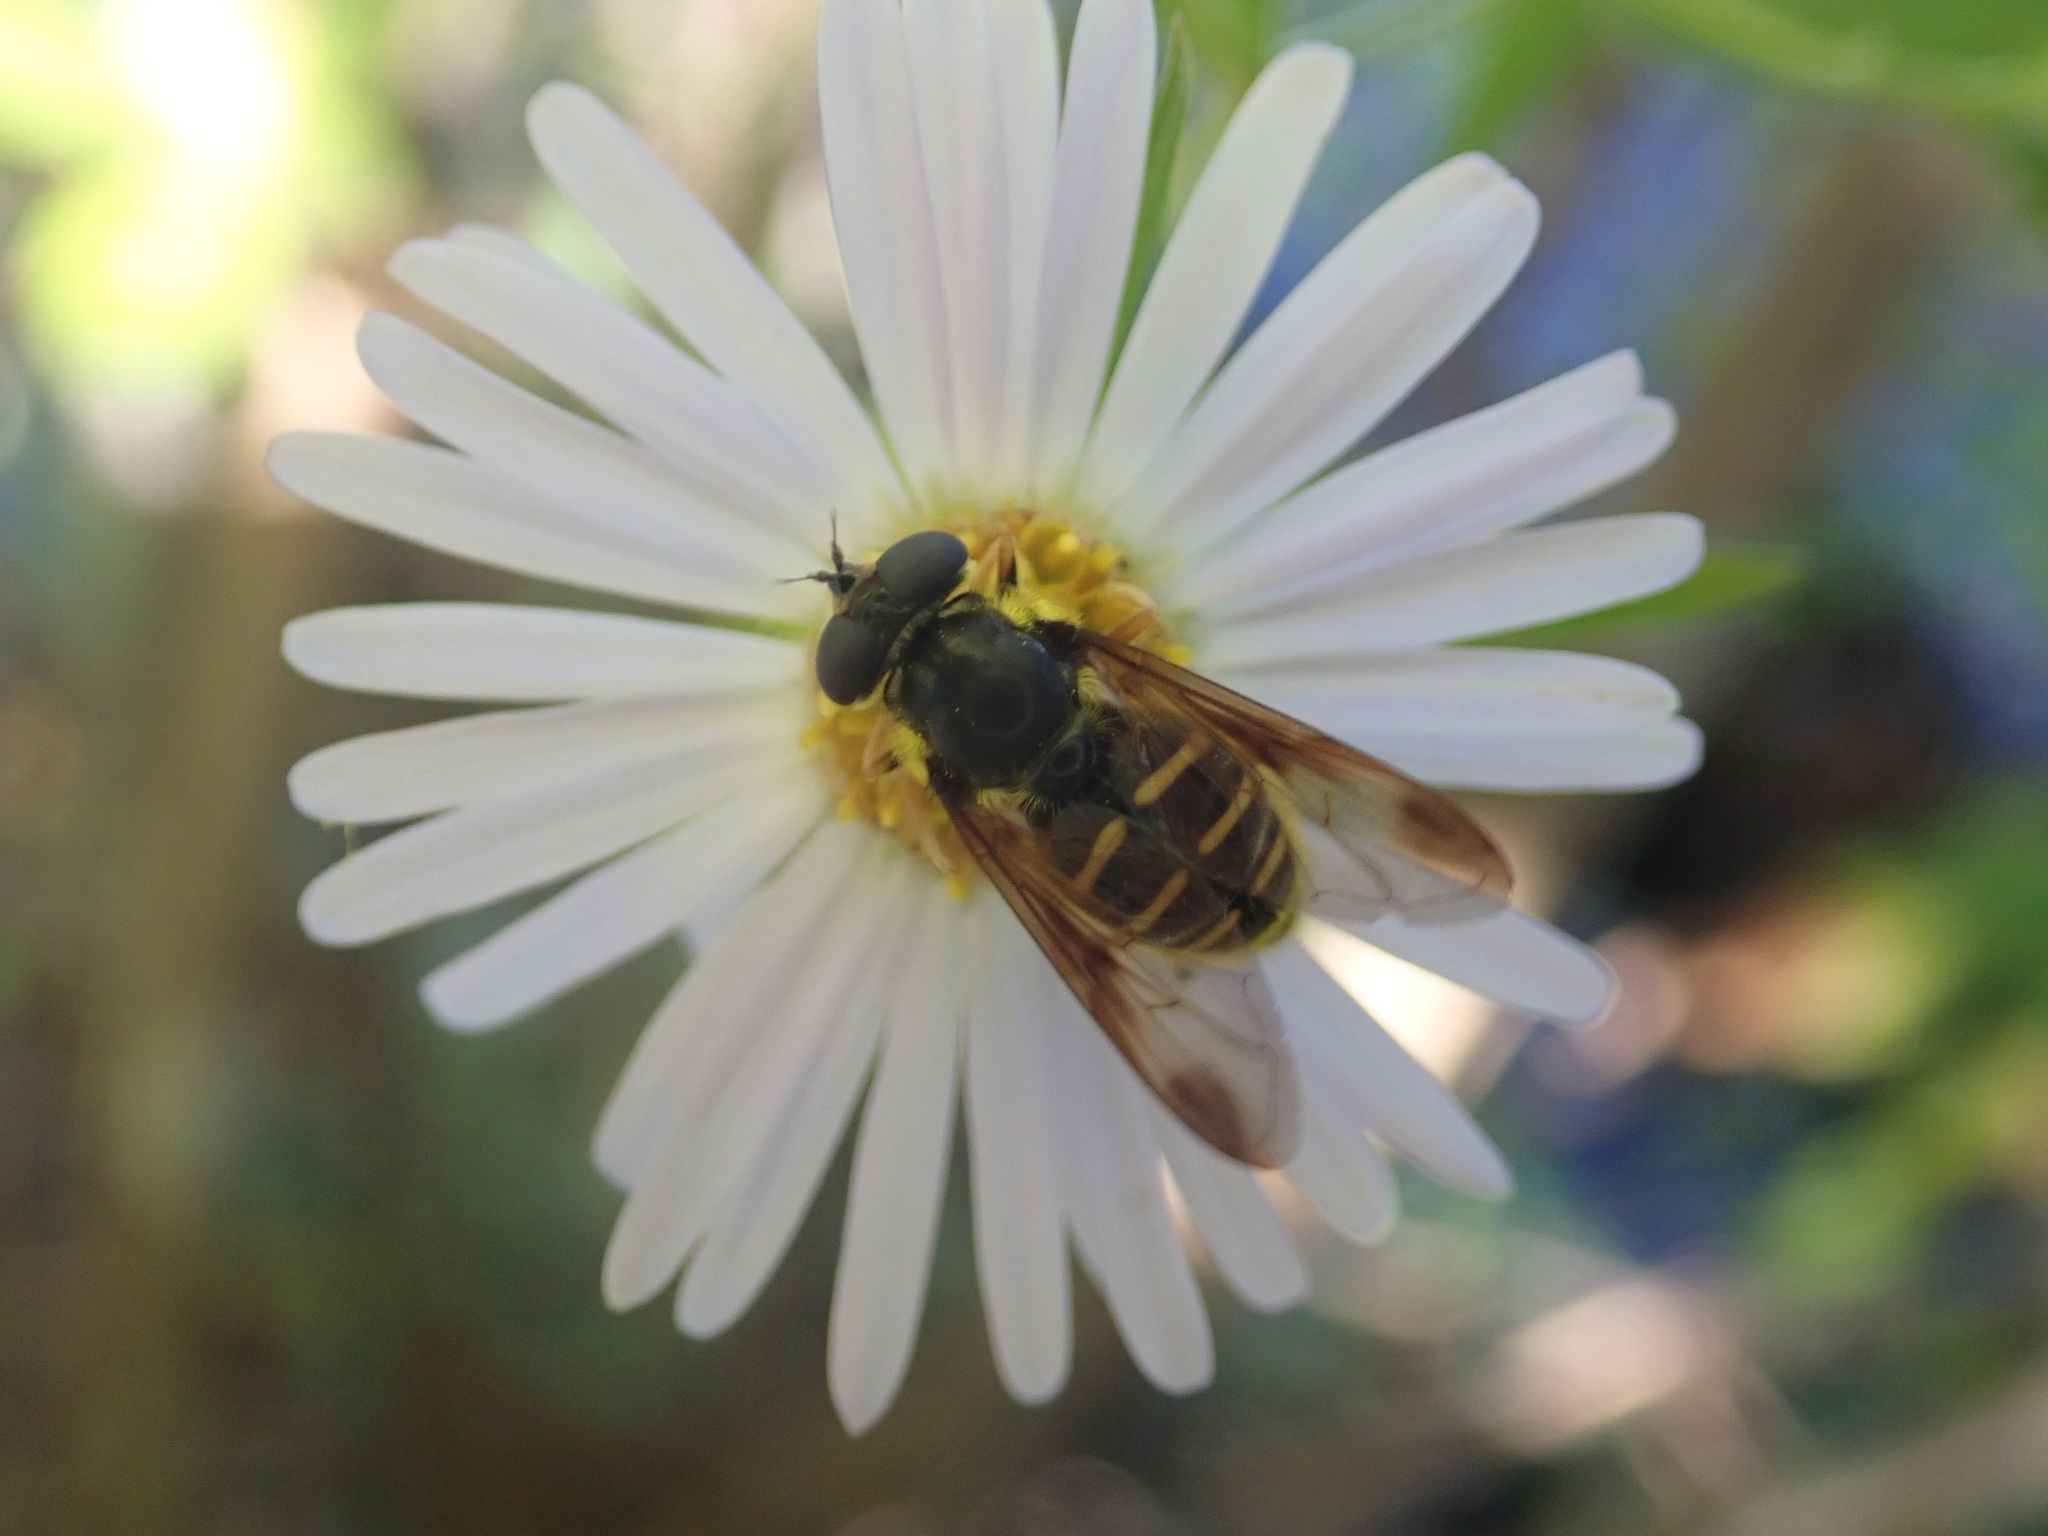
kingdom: Animalia
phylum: Arthropoda
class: Insecta
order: Diptera
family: Syrphidae
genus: Sericomyia
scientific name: Sericomyia chrysotoxoides
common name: Oblique-banded pond fly
